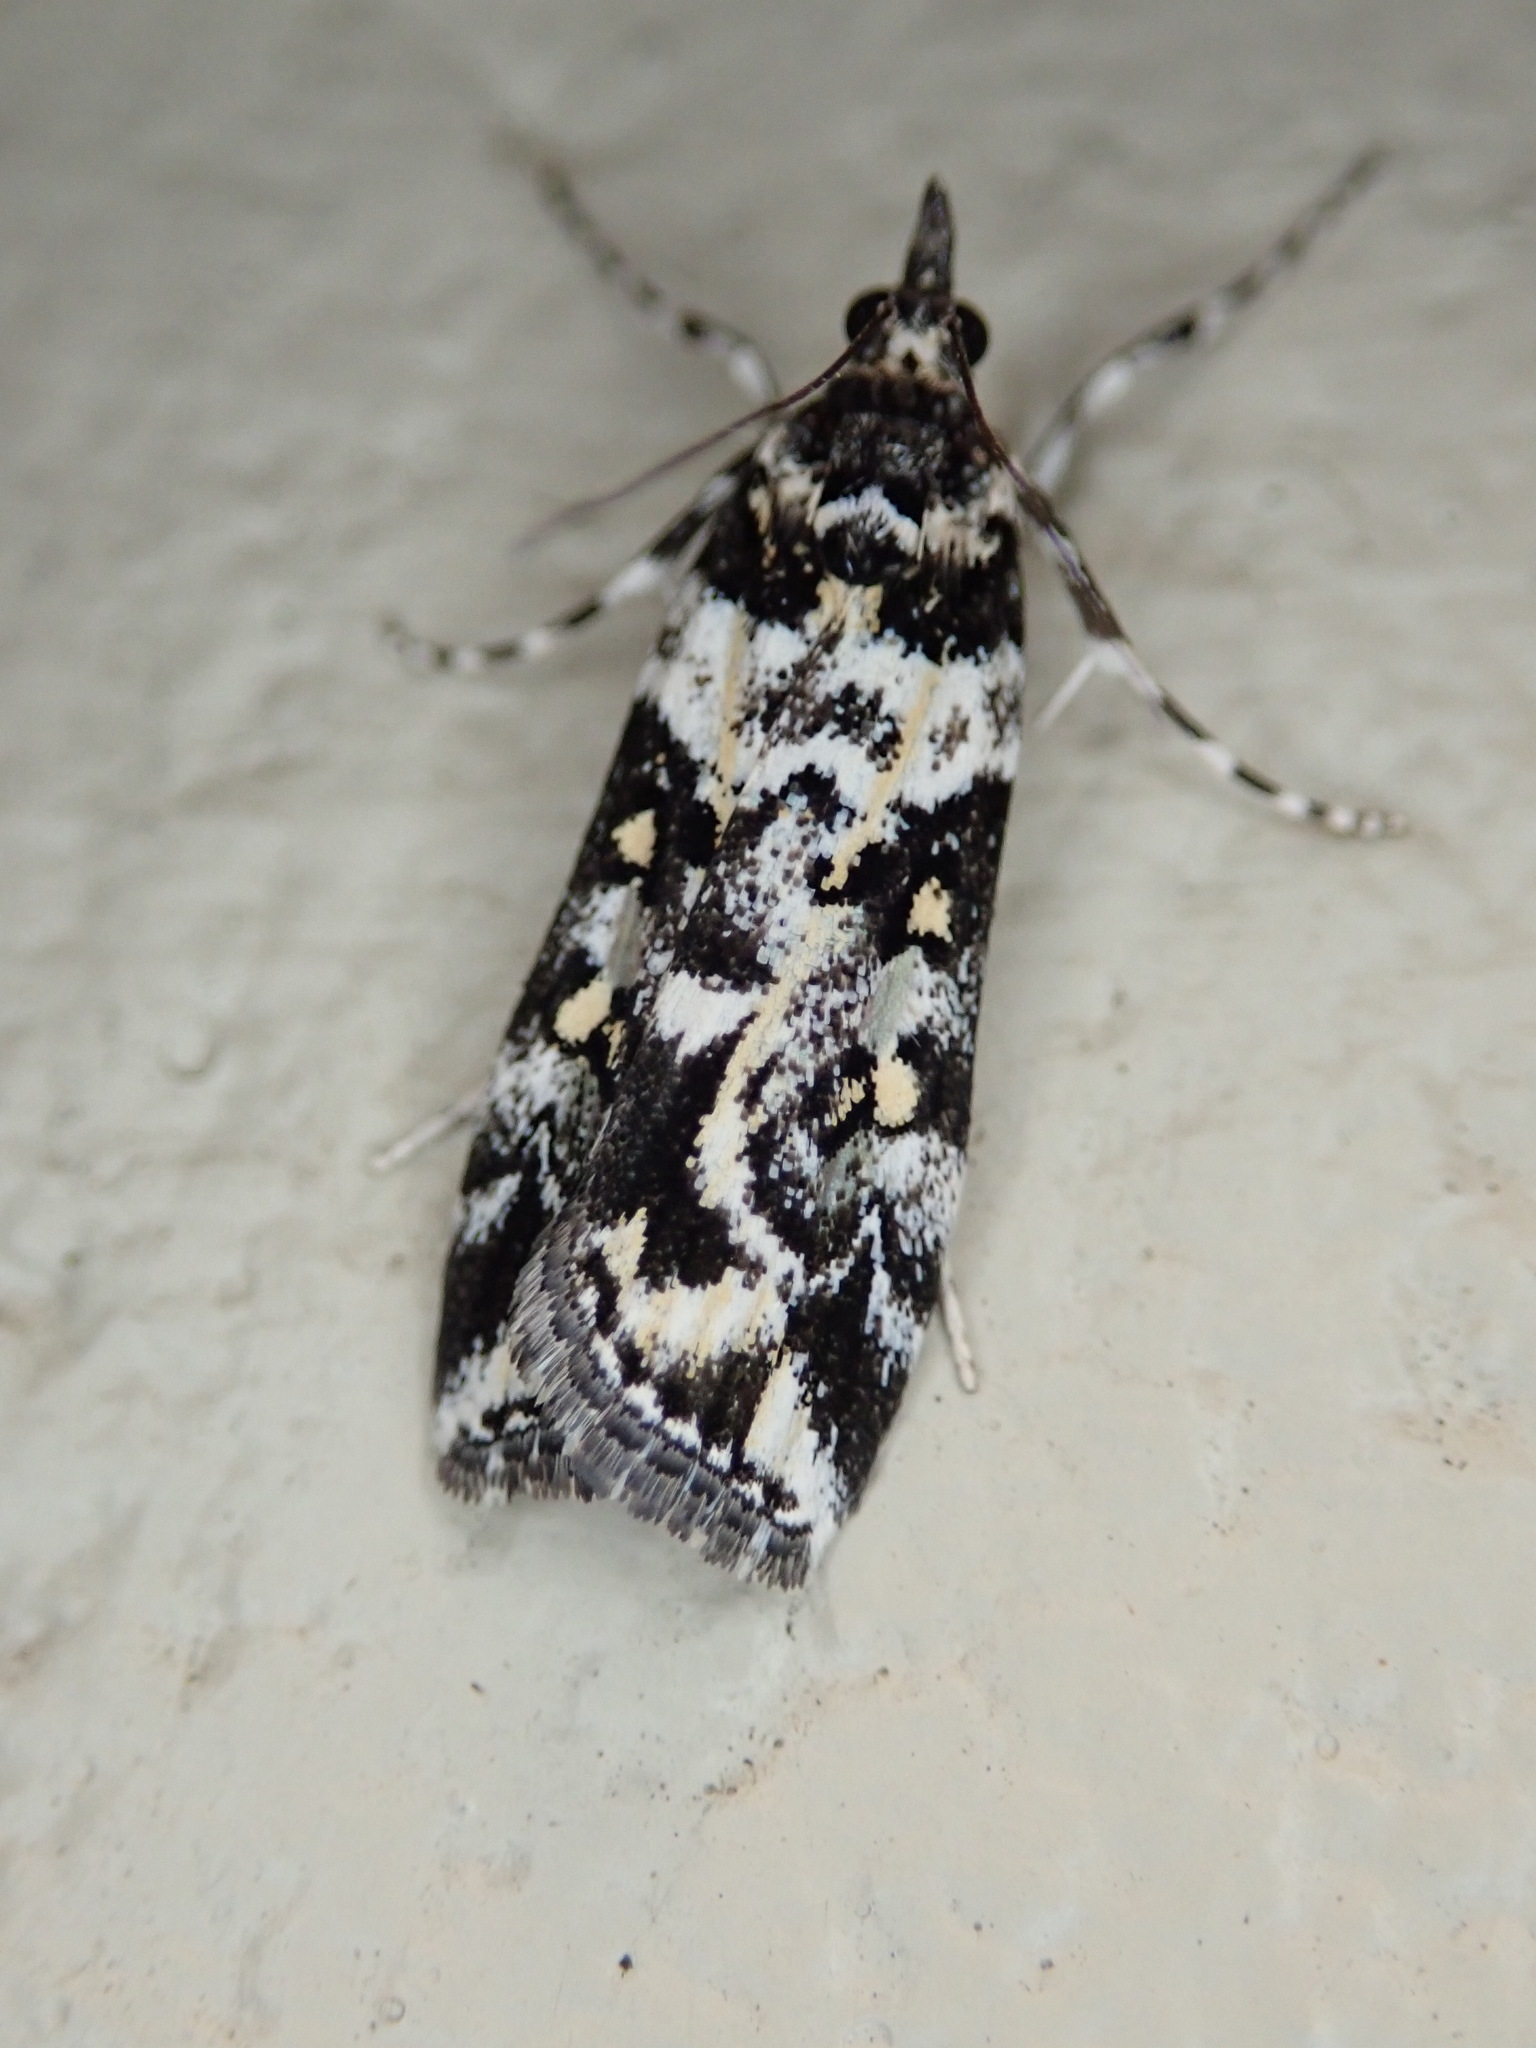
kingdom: Animalia
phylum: Arthropoda
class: Insecta
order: Lepidoptera
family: Crambidae
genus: Eudonia
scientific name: Eudonia diphtheralis
